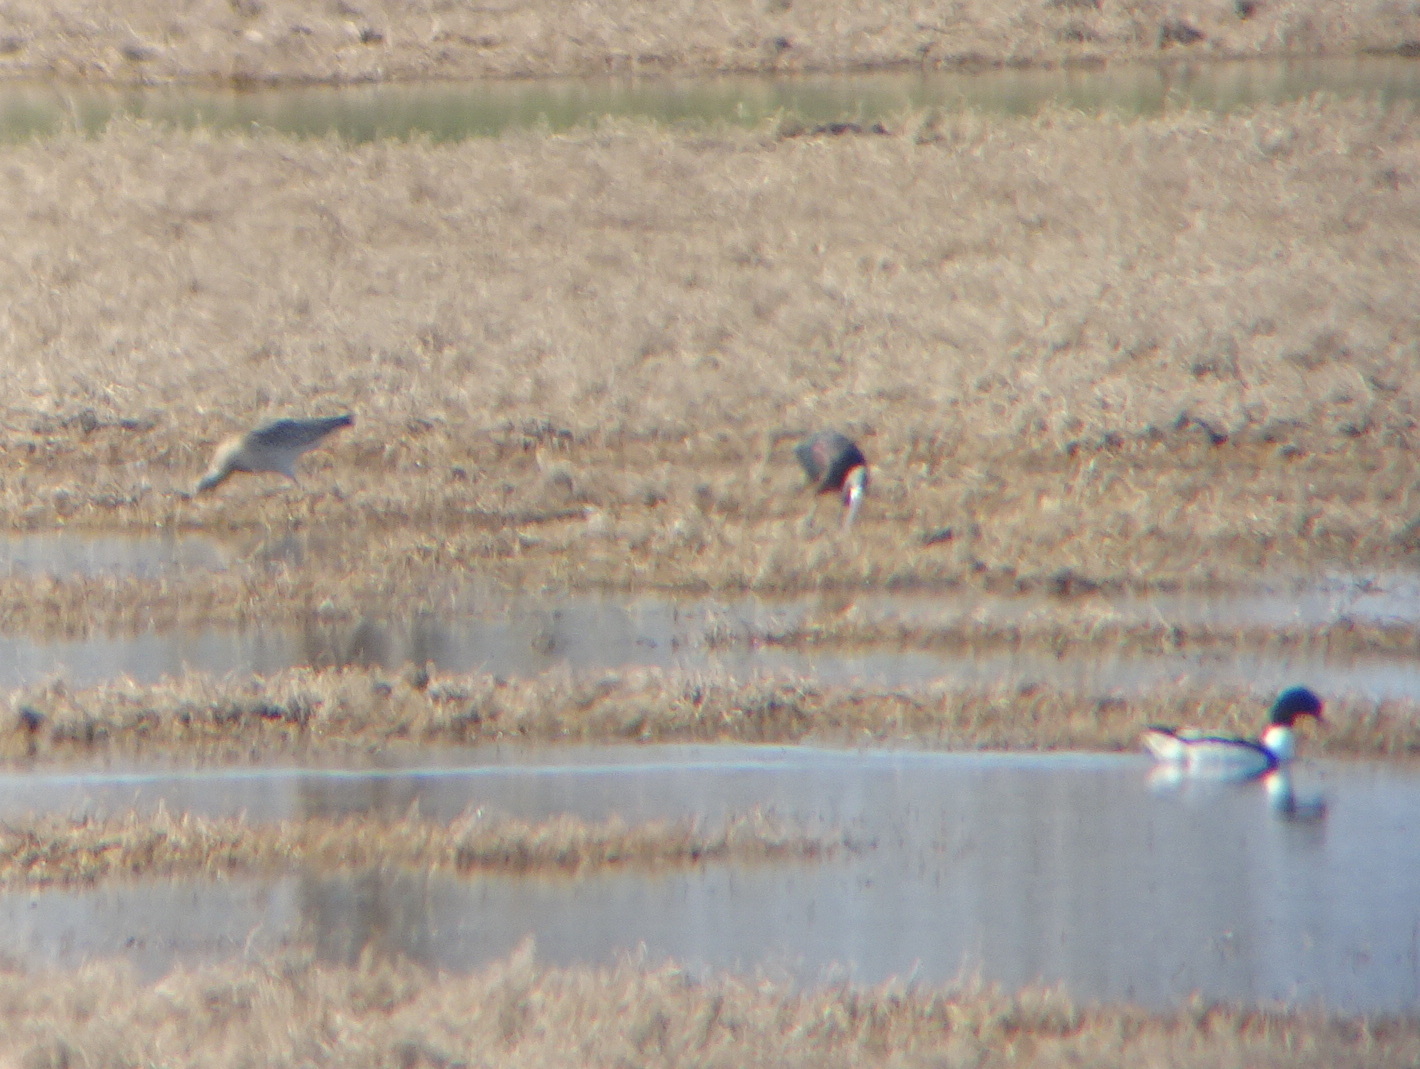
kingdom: Animalia
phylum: Chordata
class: Aves
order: Charadriiformes
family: Scolopacidae
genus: Numenius
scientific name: Numenius arquata
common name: Eurasian curlew
